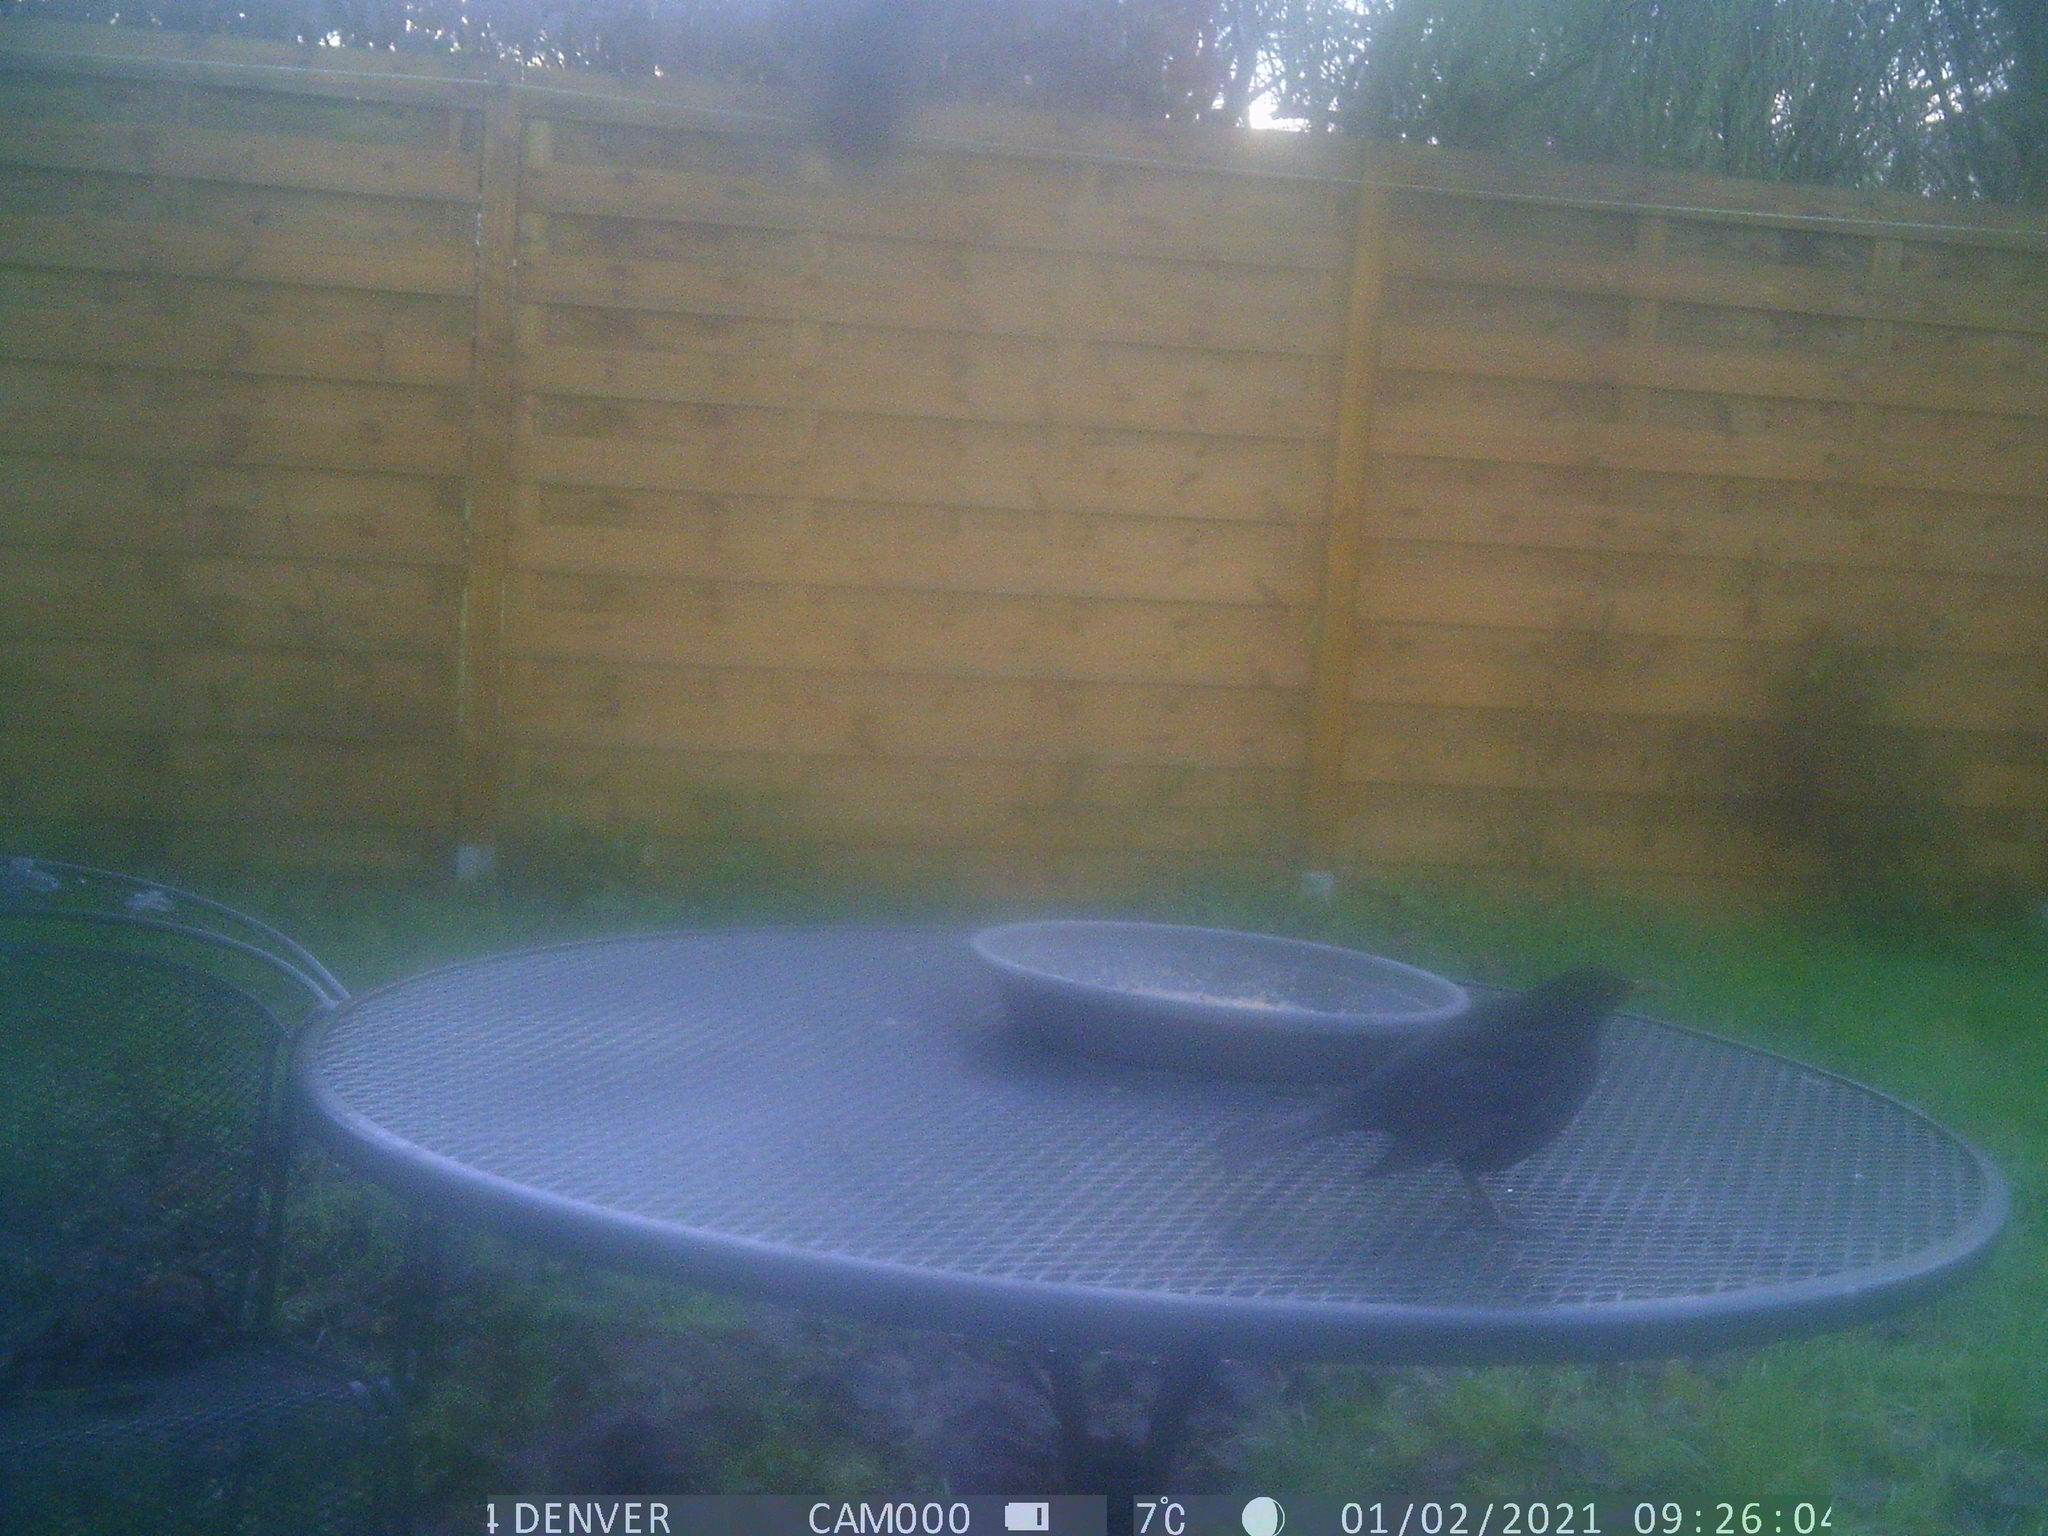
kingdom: Animalia
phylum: Chordata
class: Aves
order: Passeriformes
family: Turdidae
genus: Turdus
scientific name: Turdus merula
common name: Common blackbird
